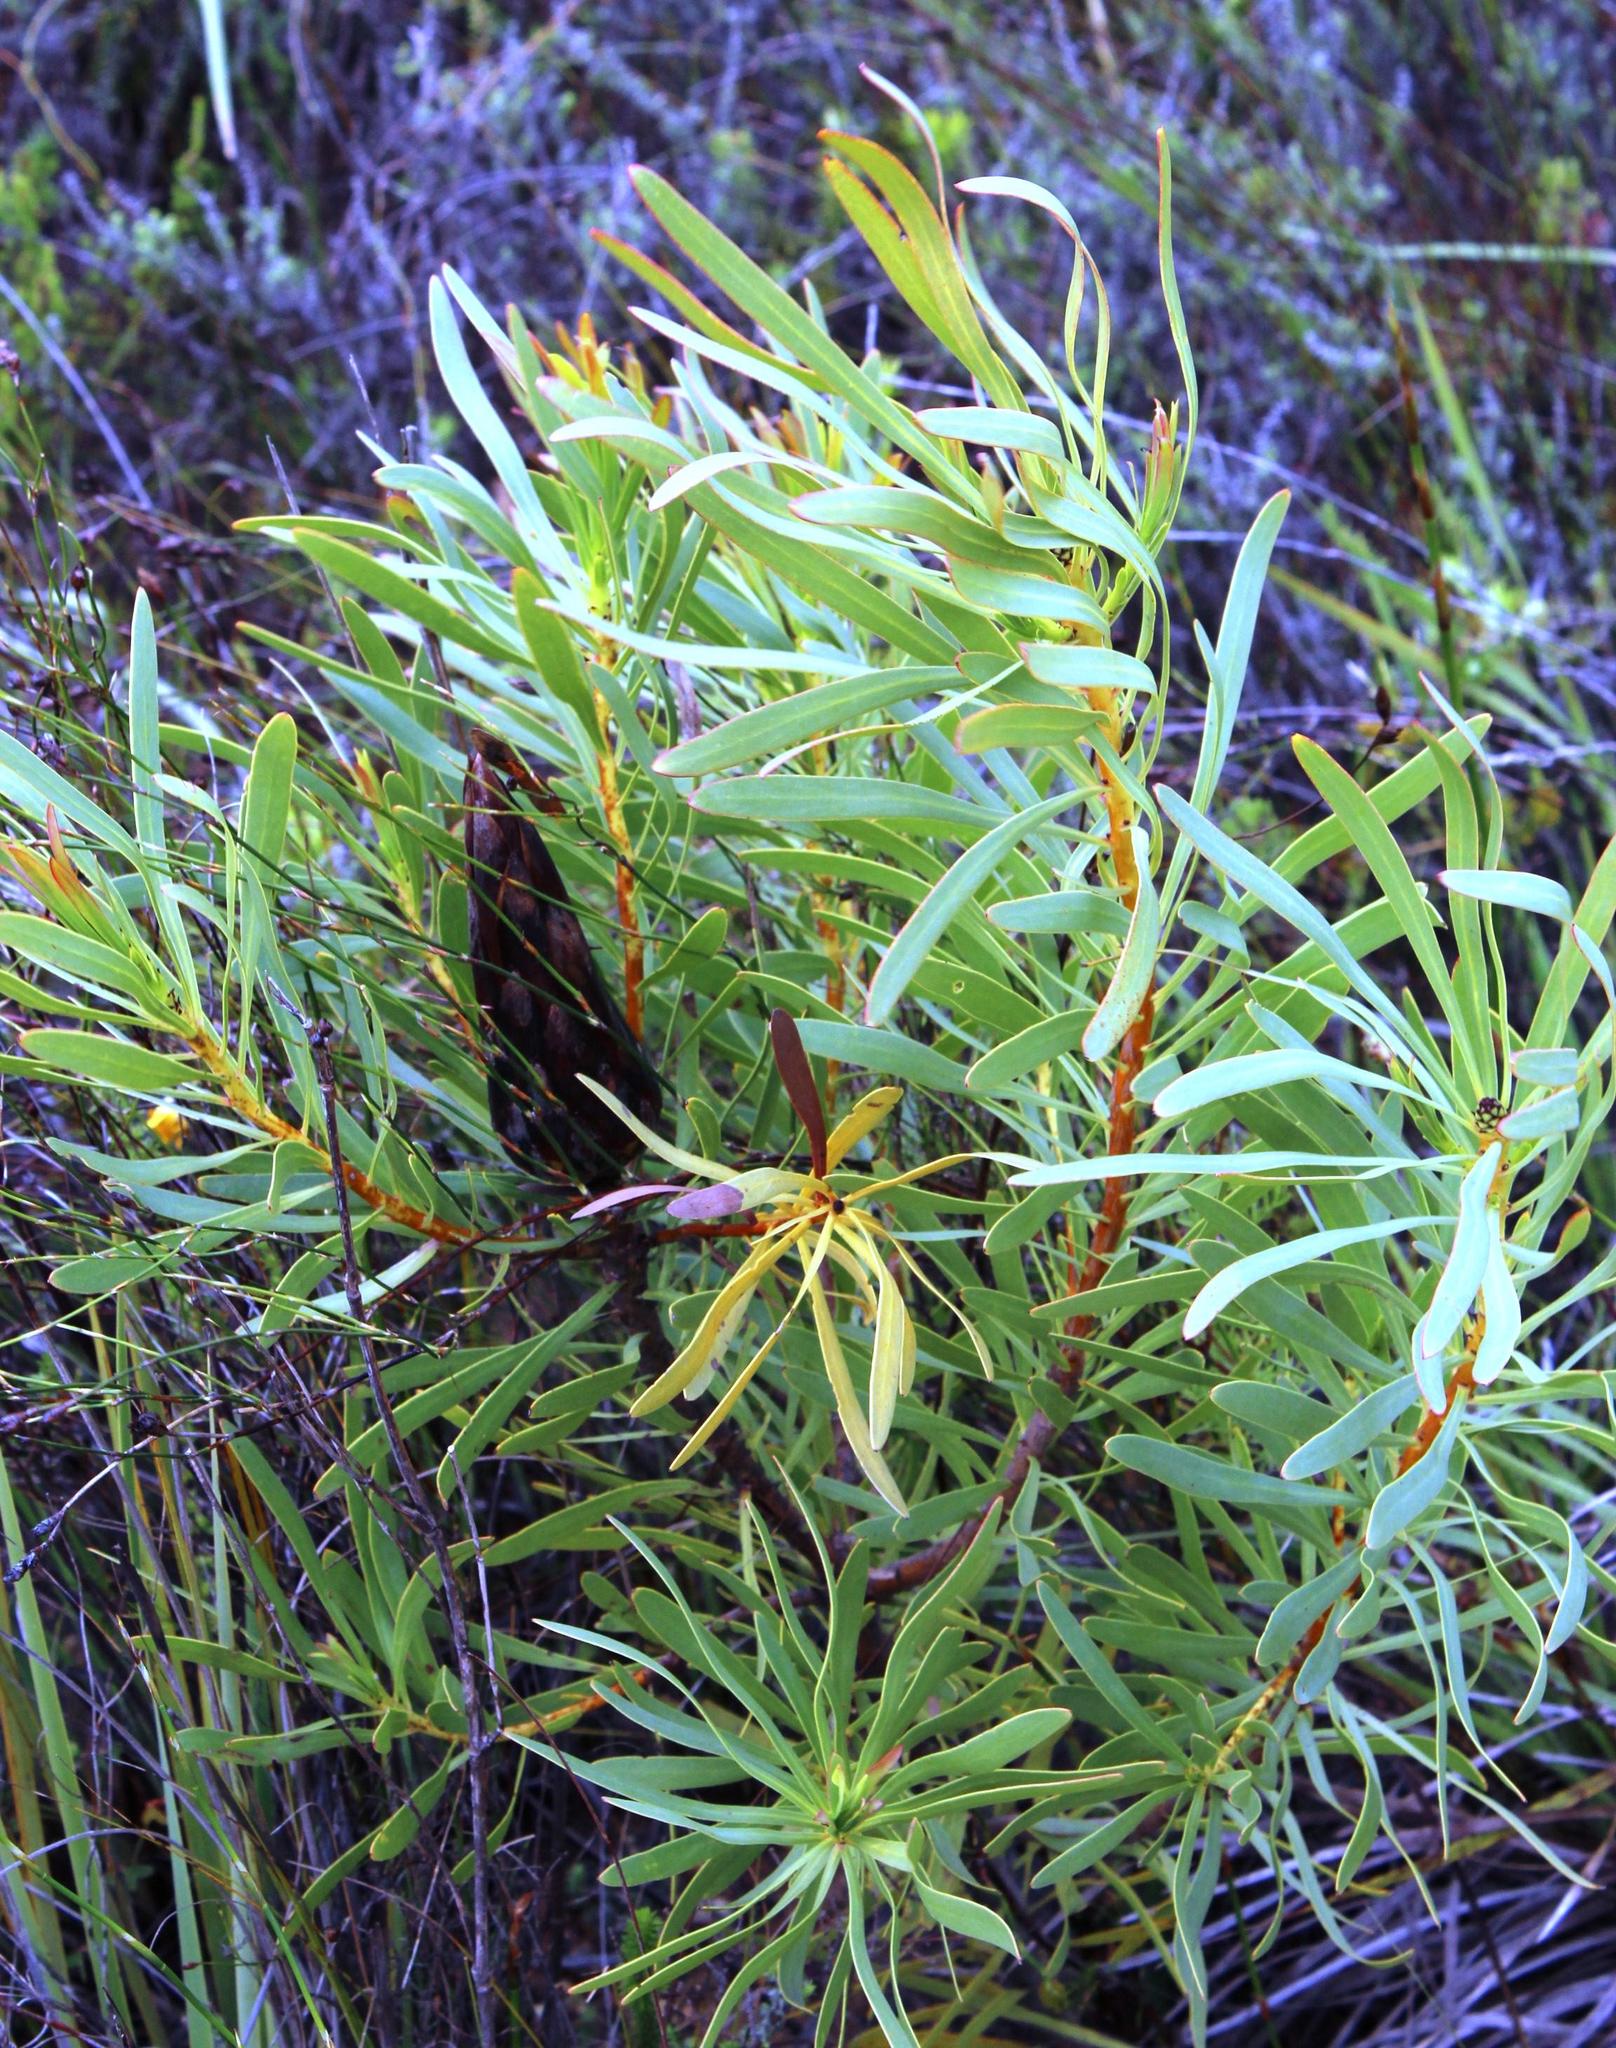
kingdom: Plantae
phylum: Tracheophyta
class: Magnoliopsida
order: Proteales
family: Proteaceae
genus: Protea
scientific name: Protea repens
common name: Sugarbush
